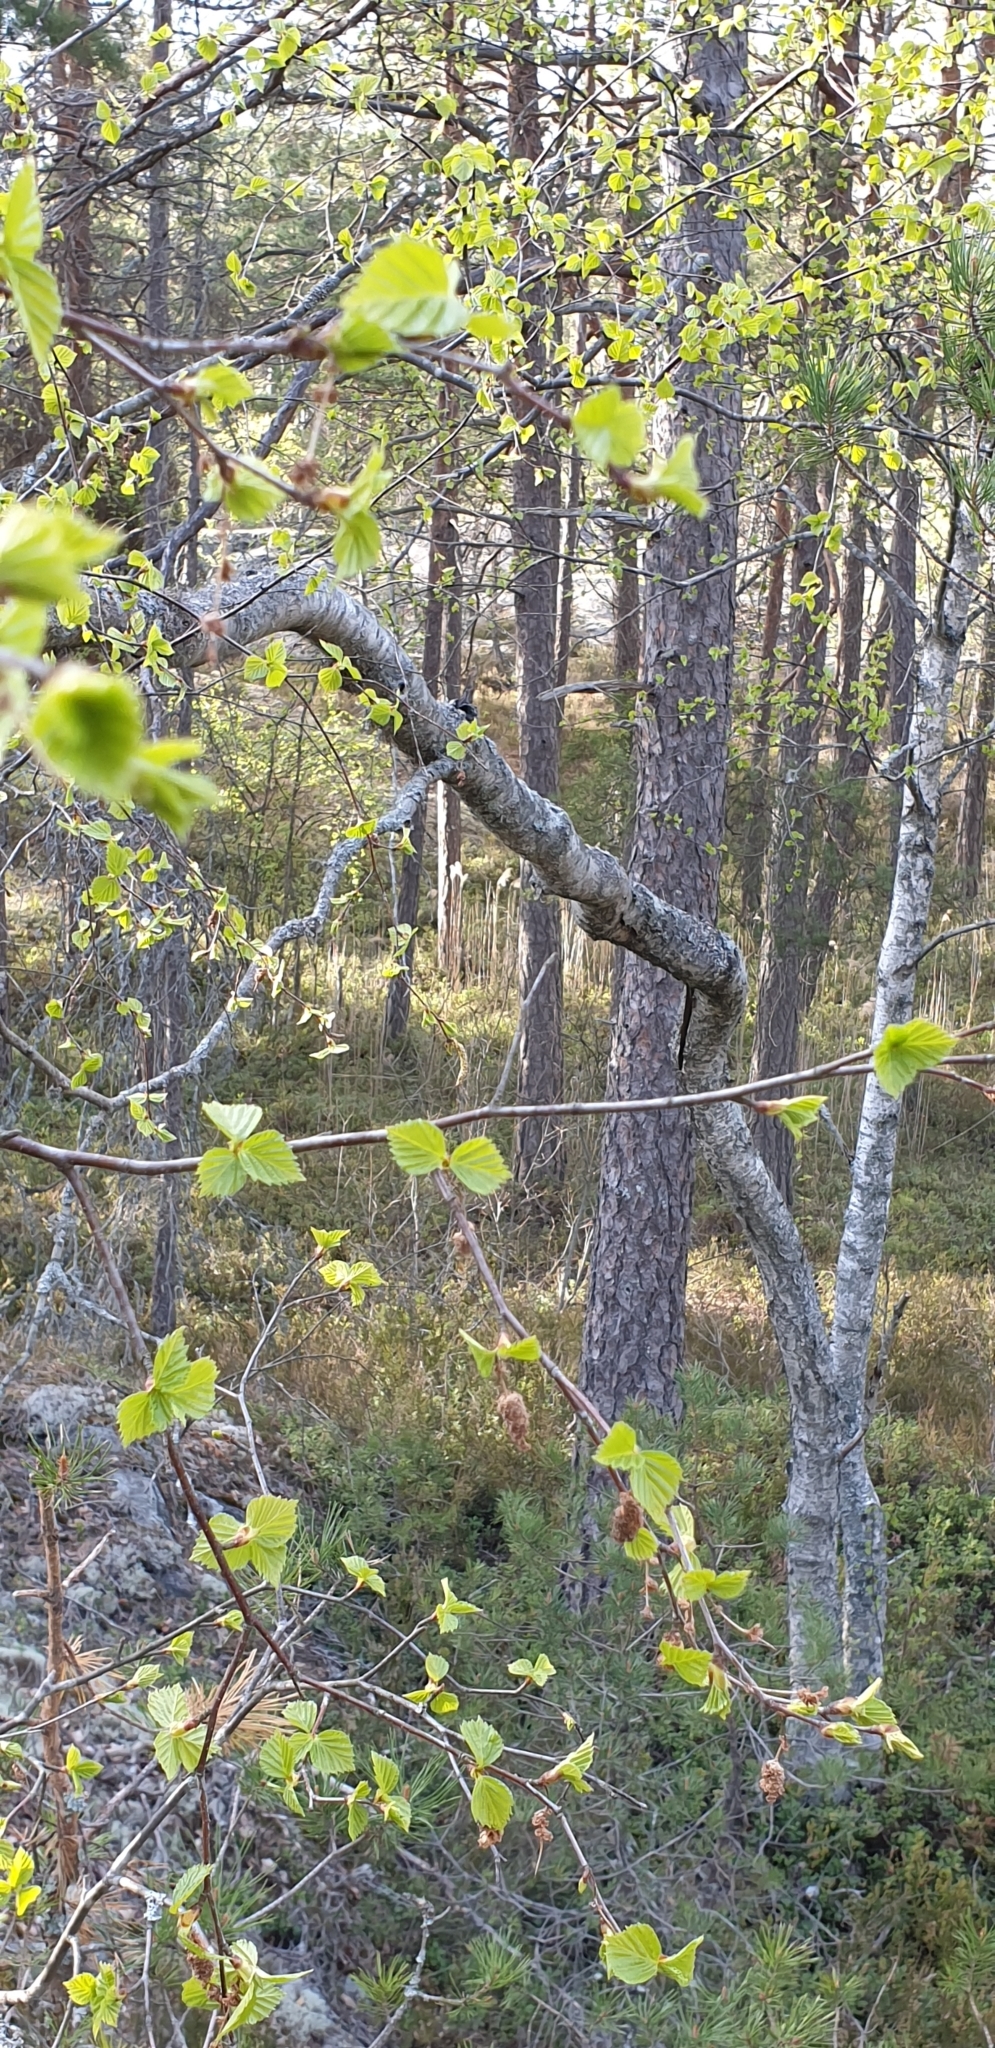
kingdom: Plantae
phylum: Tracheophyta
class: Magnoliopsida
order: Fagales
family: Betulaceae
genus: Betula
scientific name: Betula pendula
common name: Silver birch
